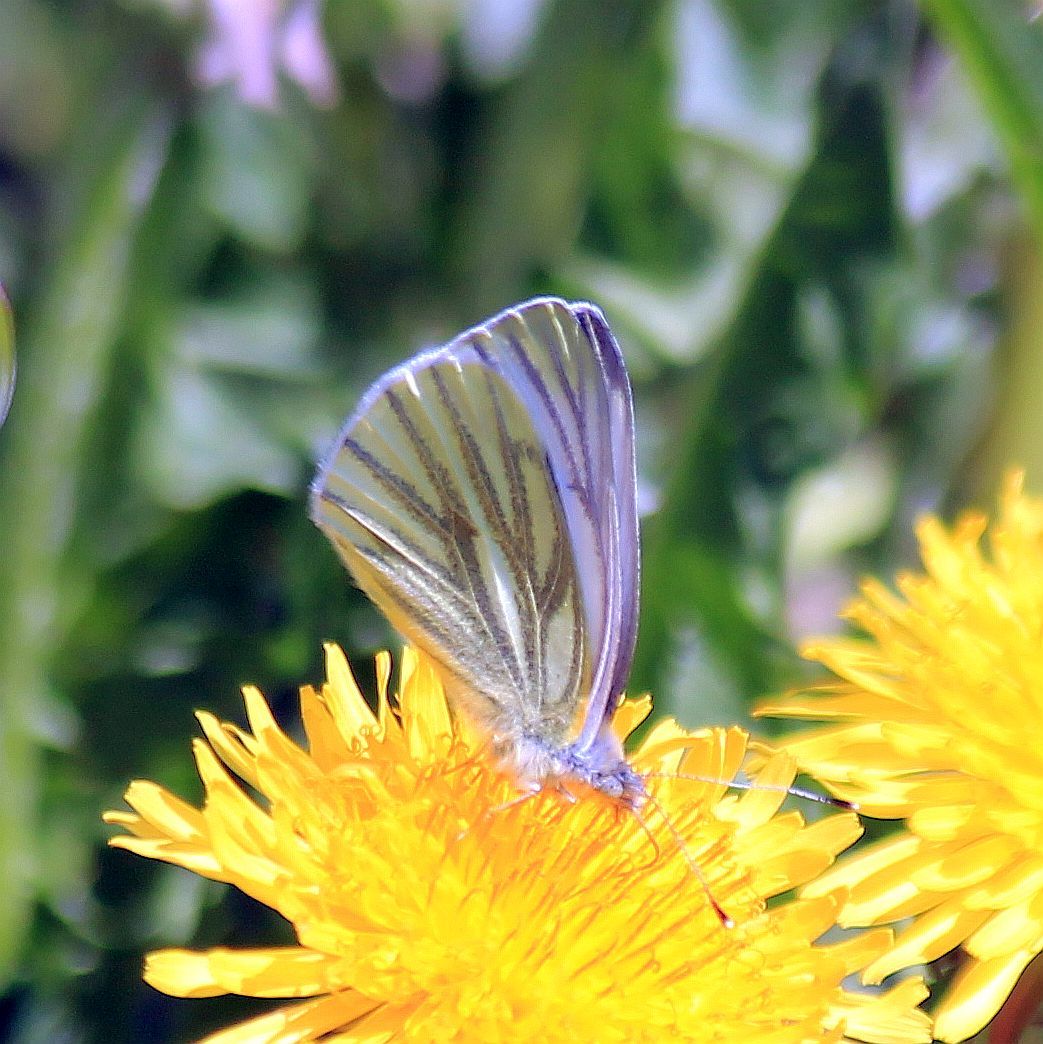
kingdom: Animalia
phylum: Arthropoda
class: Insecta
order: Lepidoptera
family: Pieridae
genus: Pieris
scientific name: Pieris napi
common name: Green-veined white
